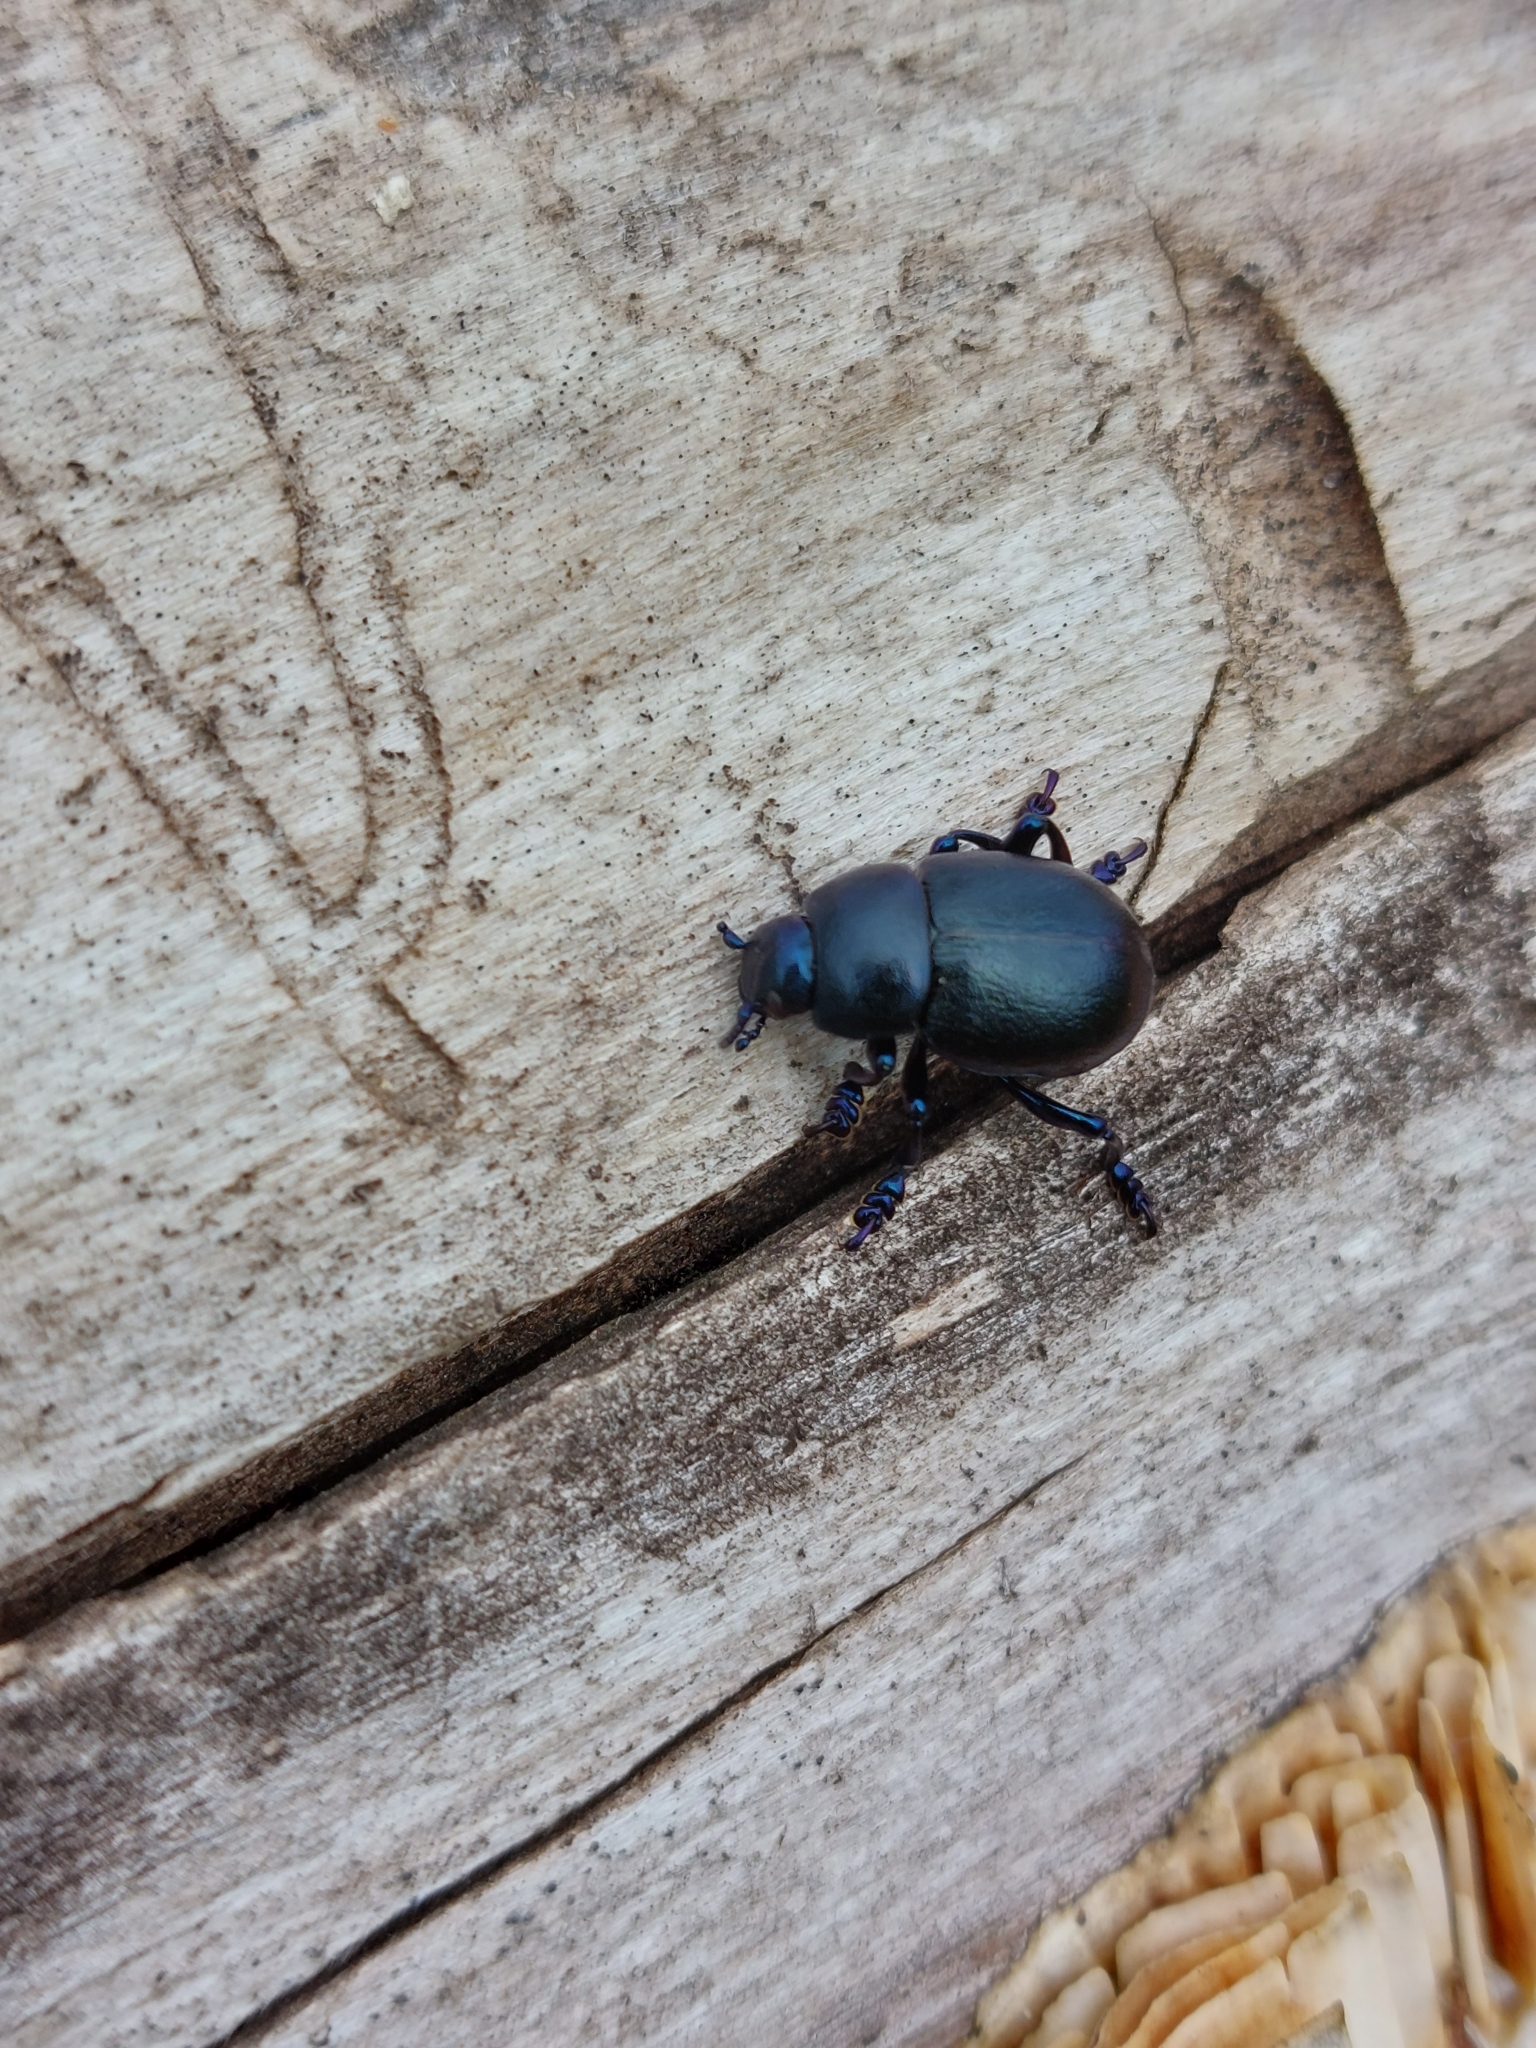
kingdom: Animalia
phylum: Arthropoda
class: Insecta
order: Coleoptera
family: Chrysomelidae
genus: Timarcha
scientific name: Timarcha goettingensis
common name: Small bloody-nosed beetle
